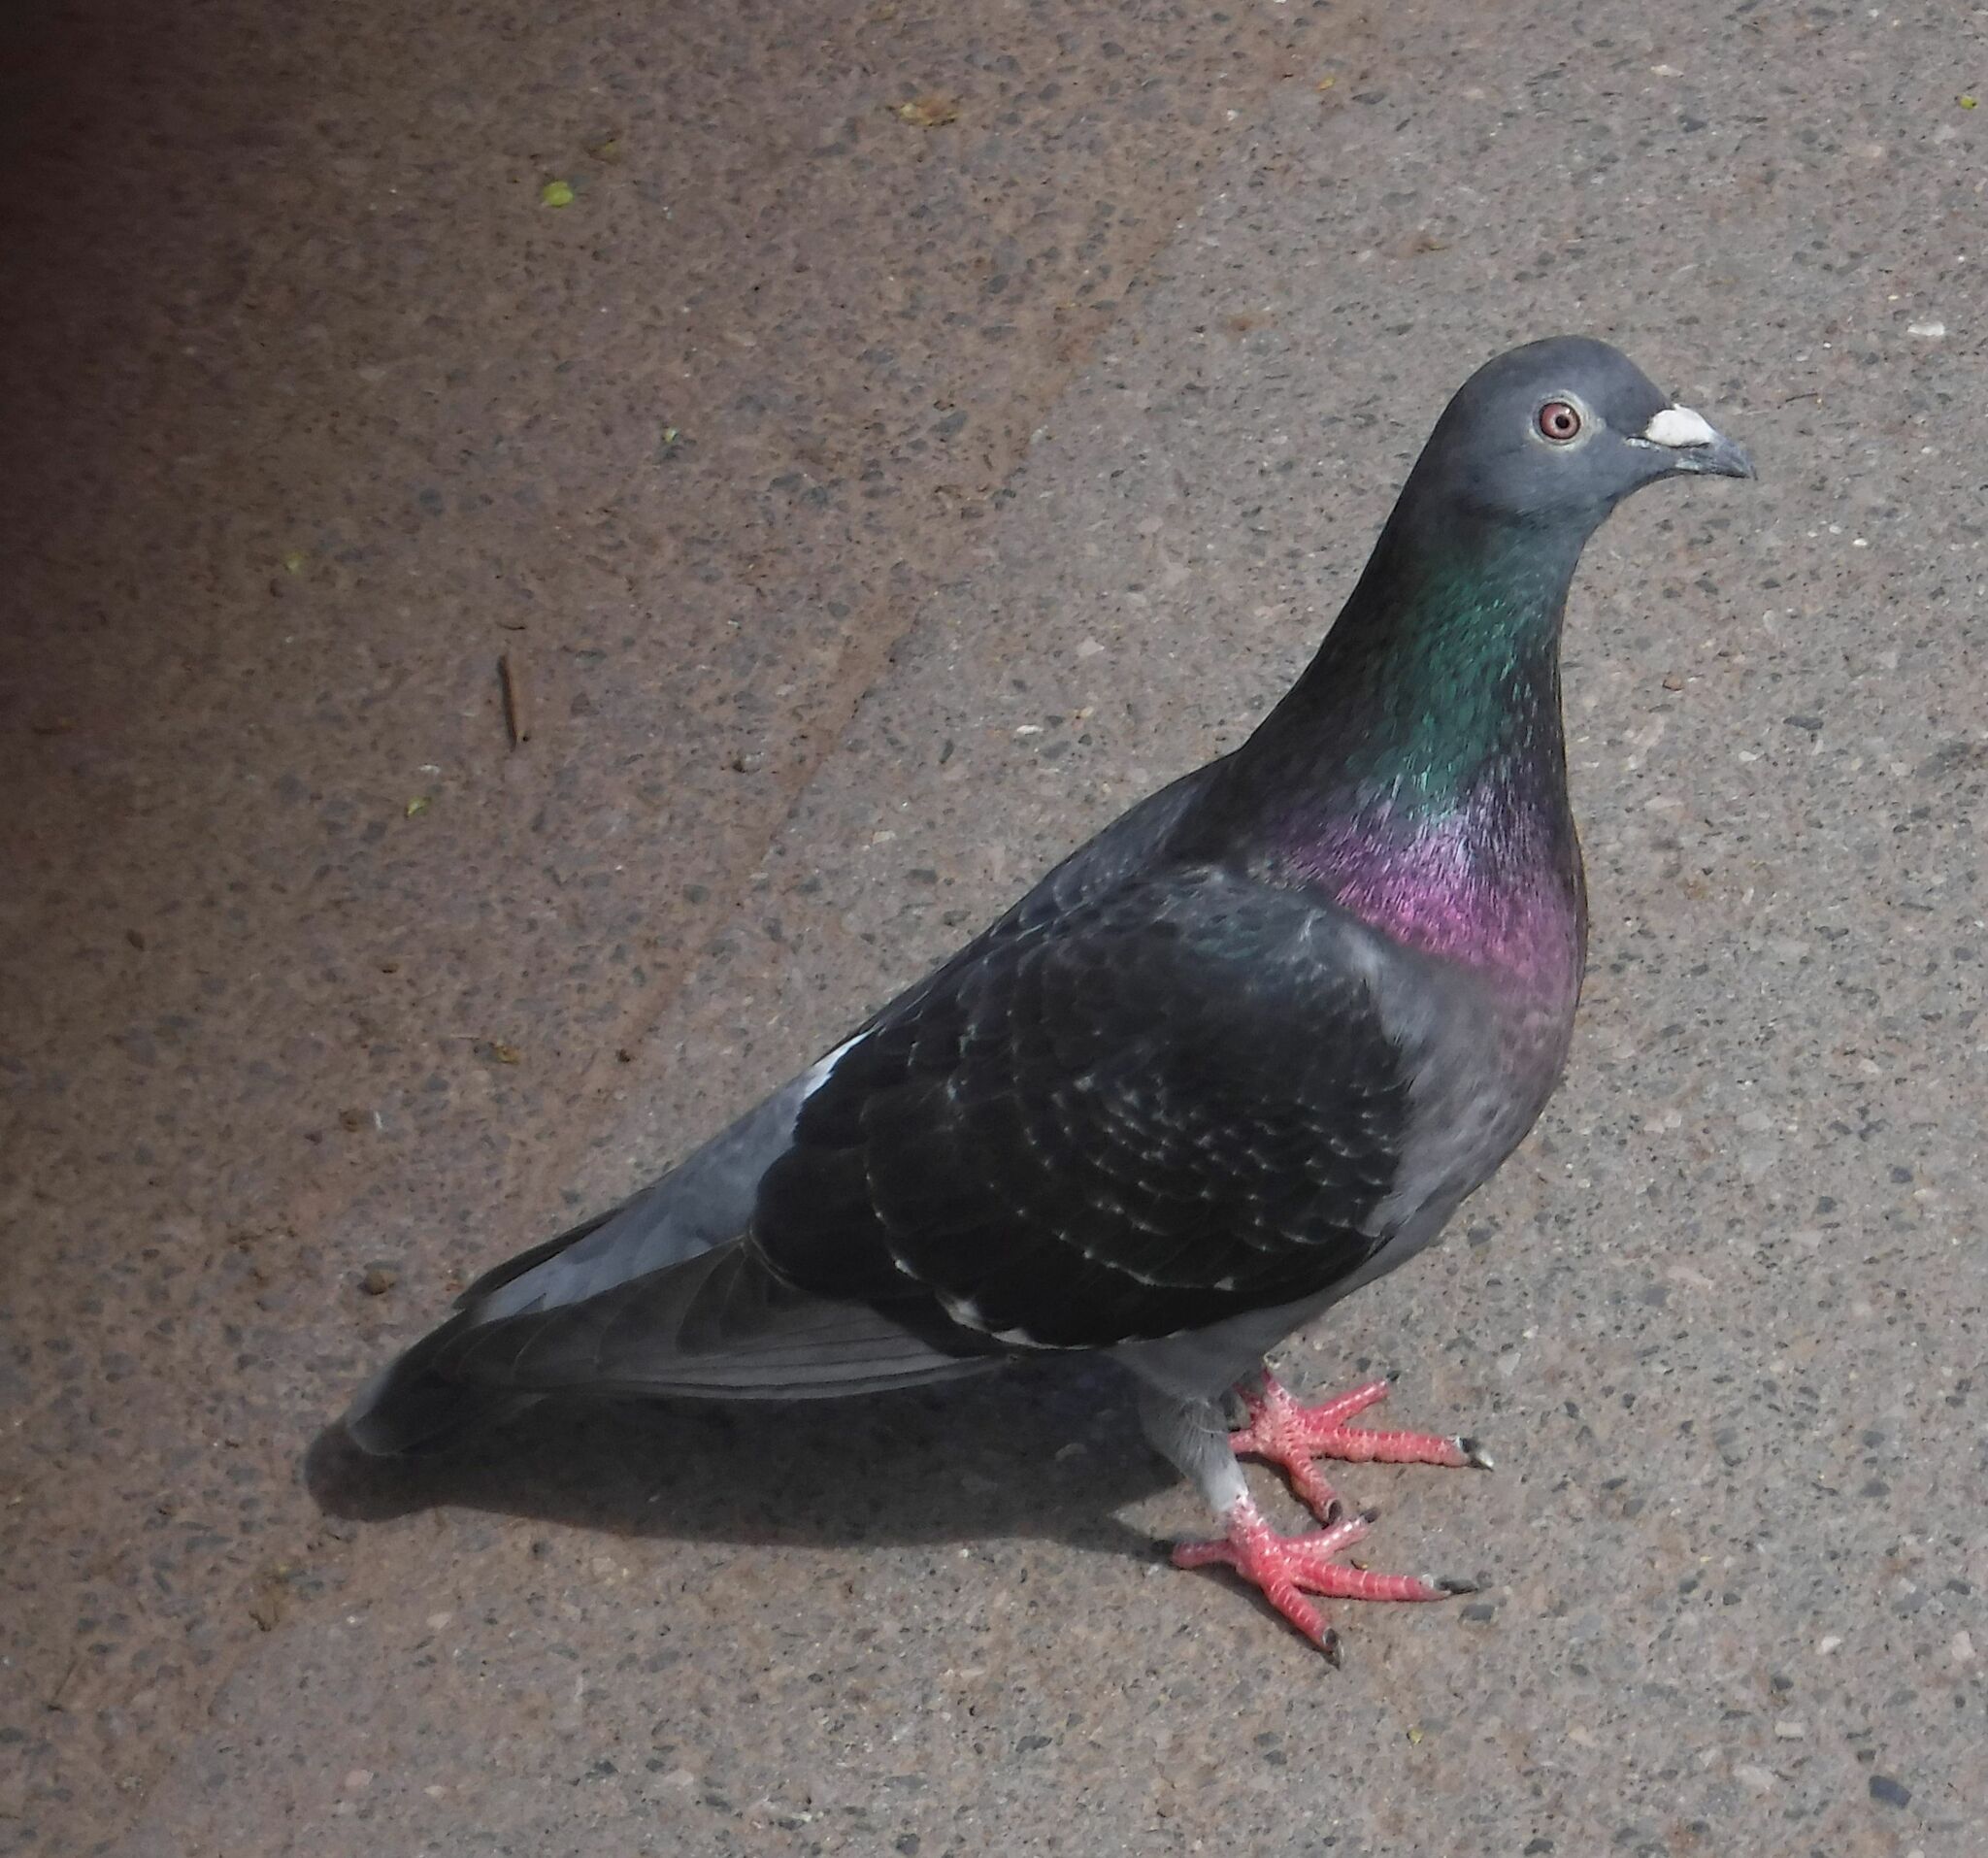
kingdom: Animalia
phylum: Chordata
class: Aves
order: Columbiformes
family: Columbidae
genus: Columba
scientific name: Columba livia
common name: Rock pigeon
